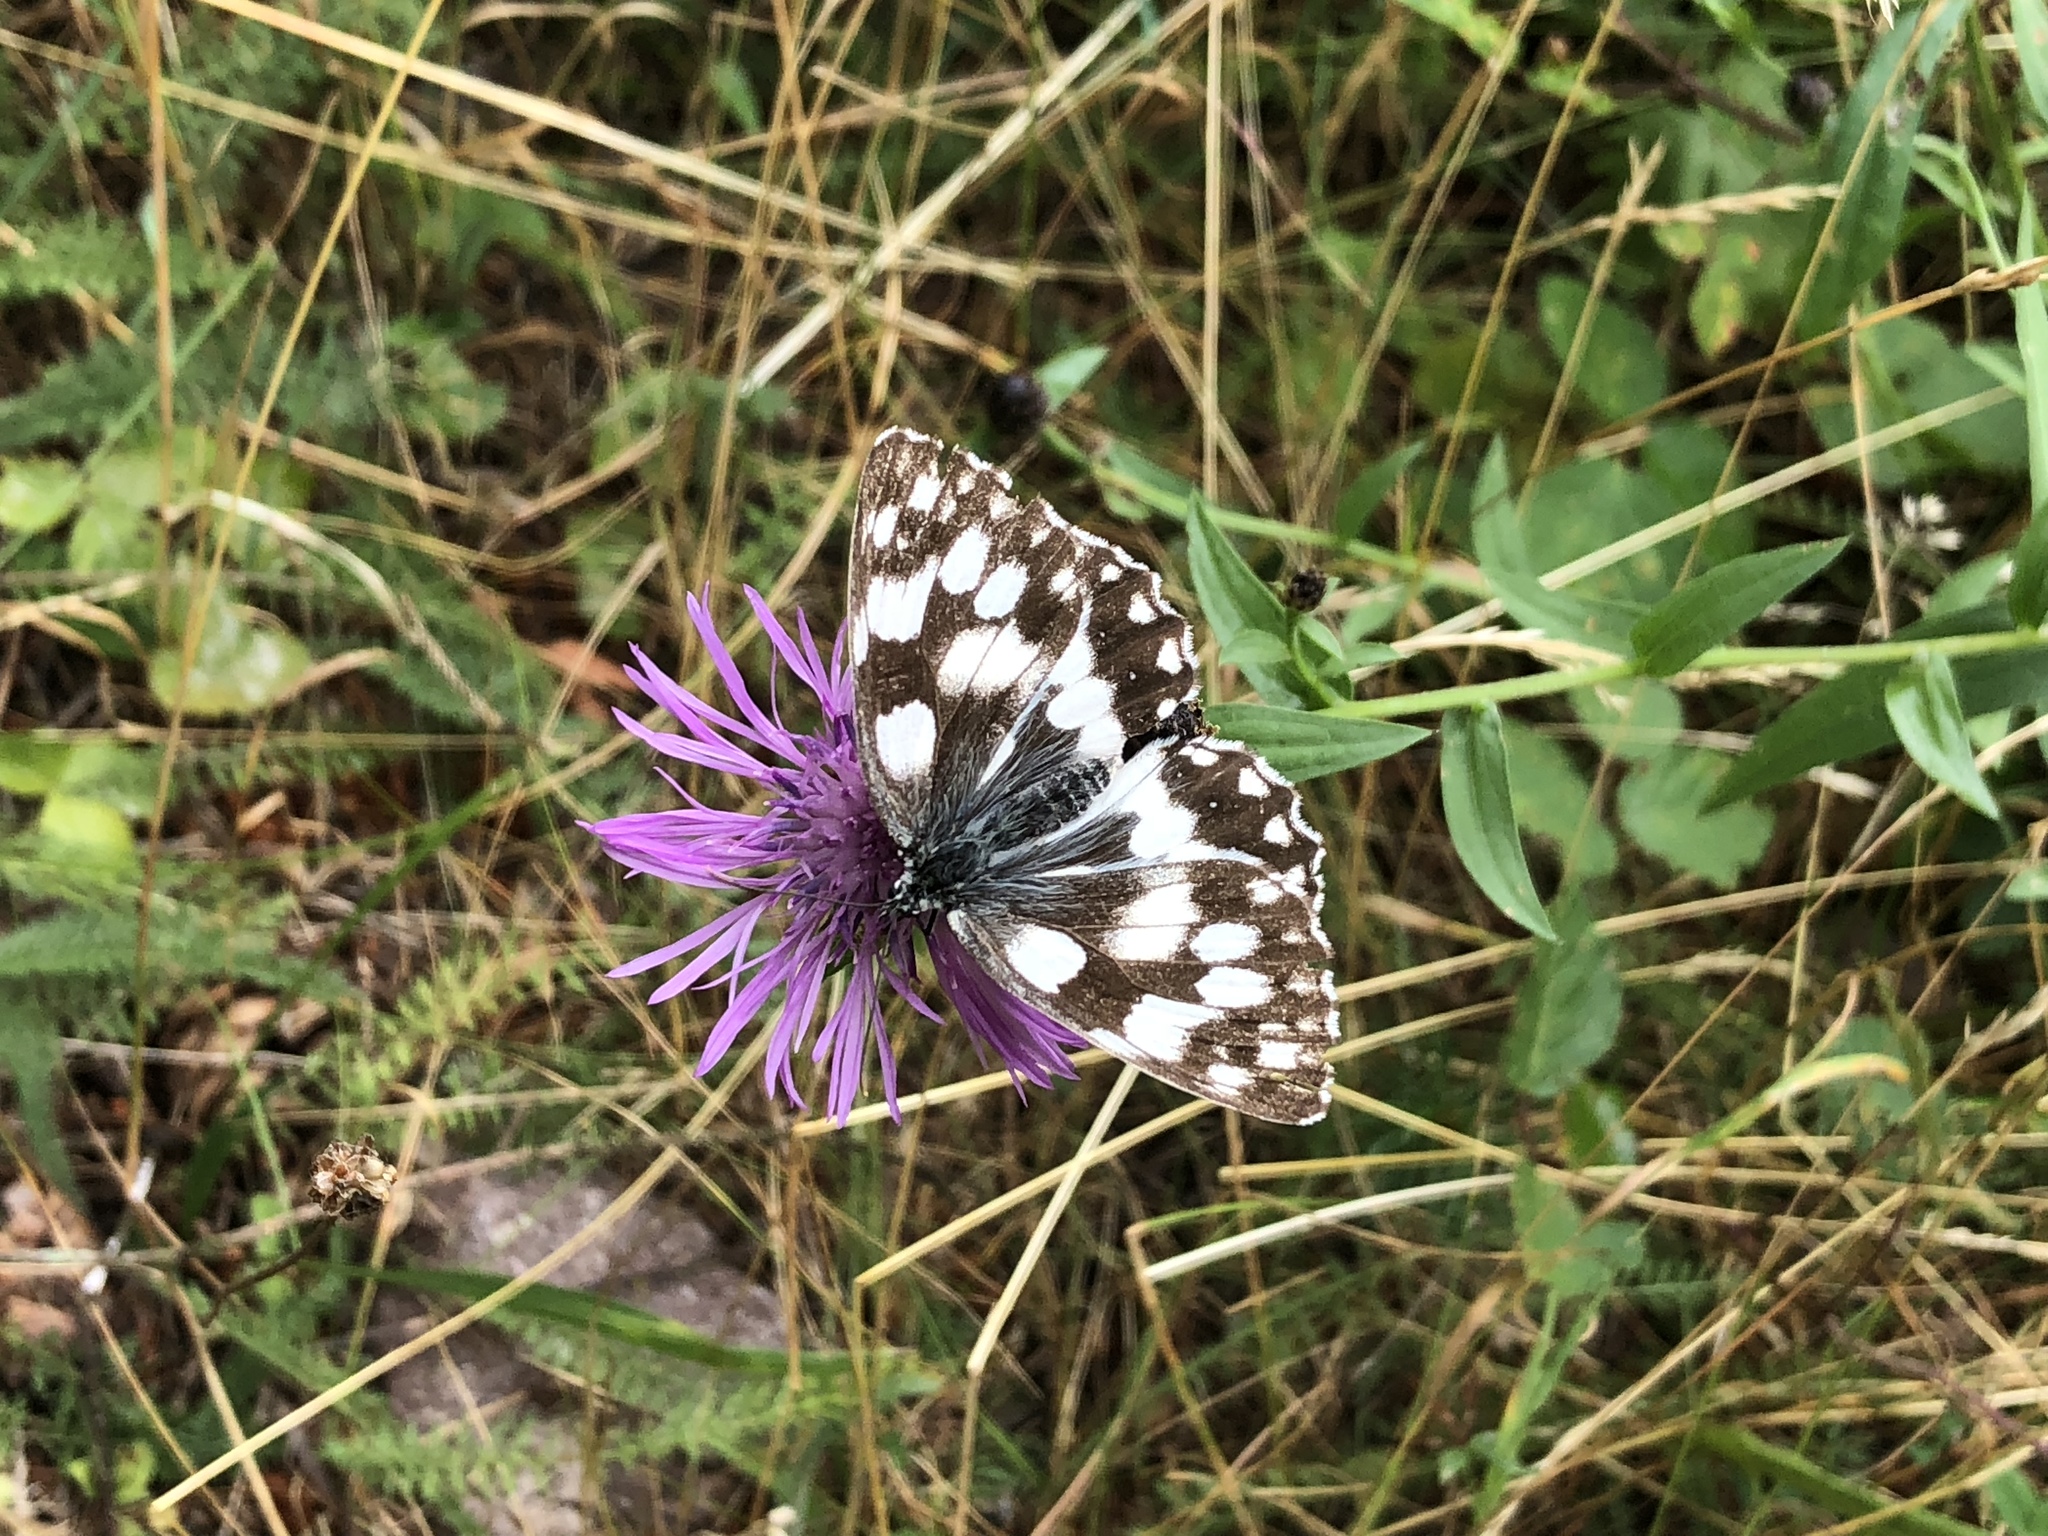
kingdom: Animalia
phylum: Arthropoda
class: Insecta
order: Lepidoptera
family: Nymphalidae
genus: Melanargia
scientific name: Melanargia galathea
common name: Marbled white
